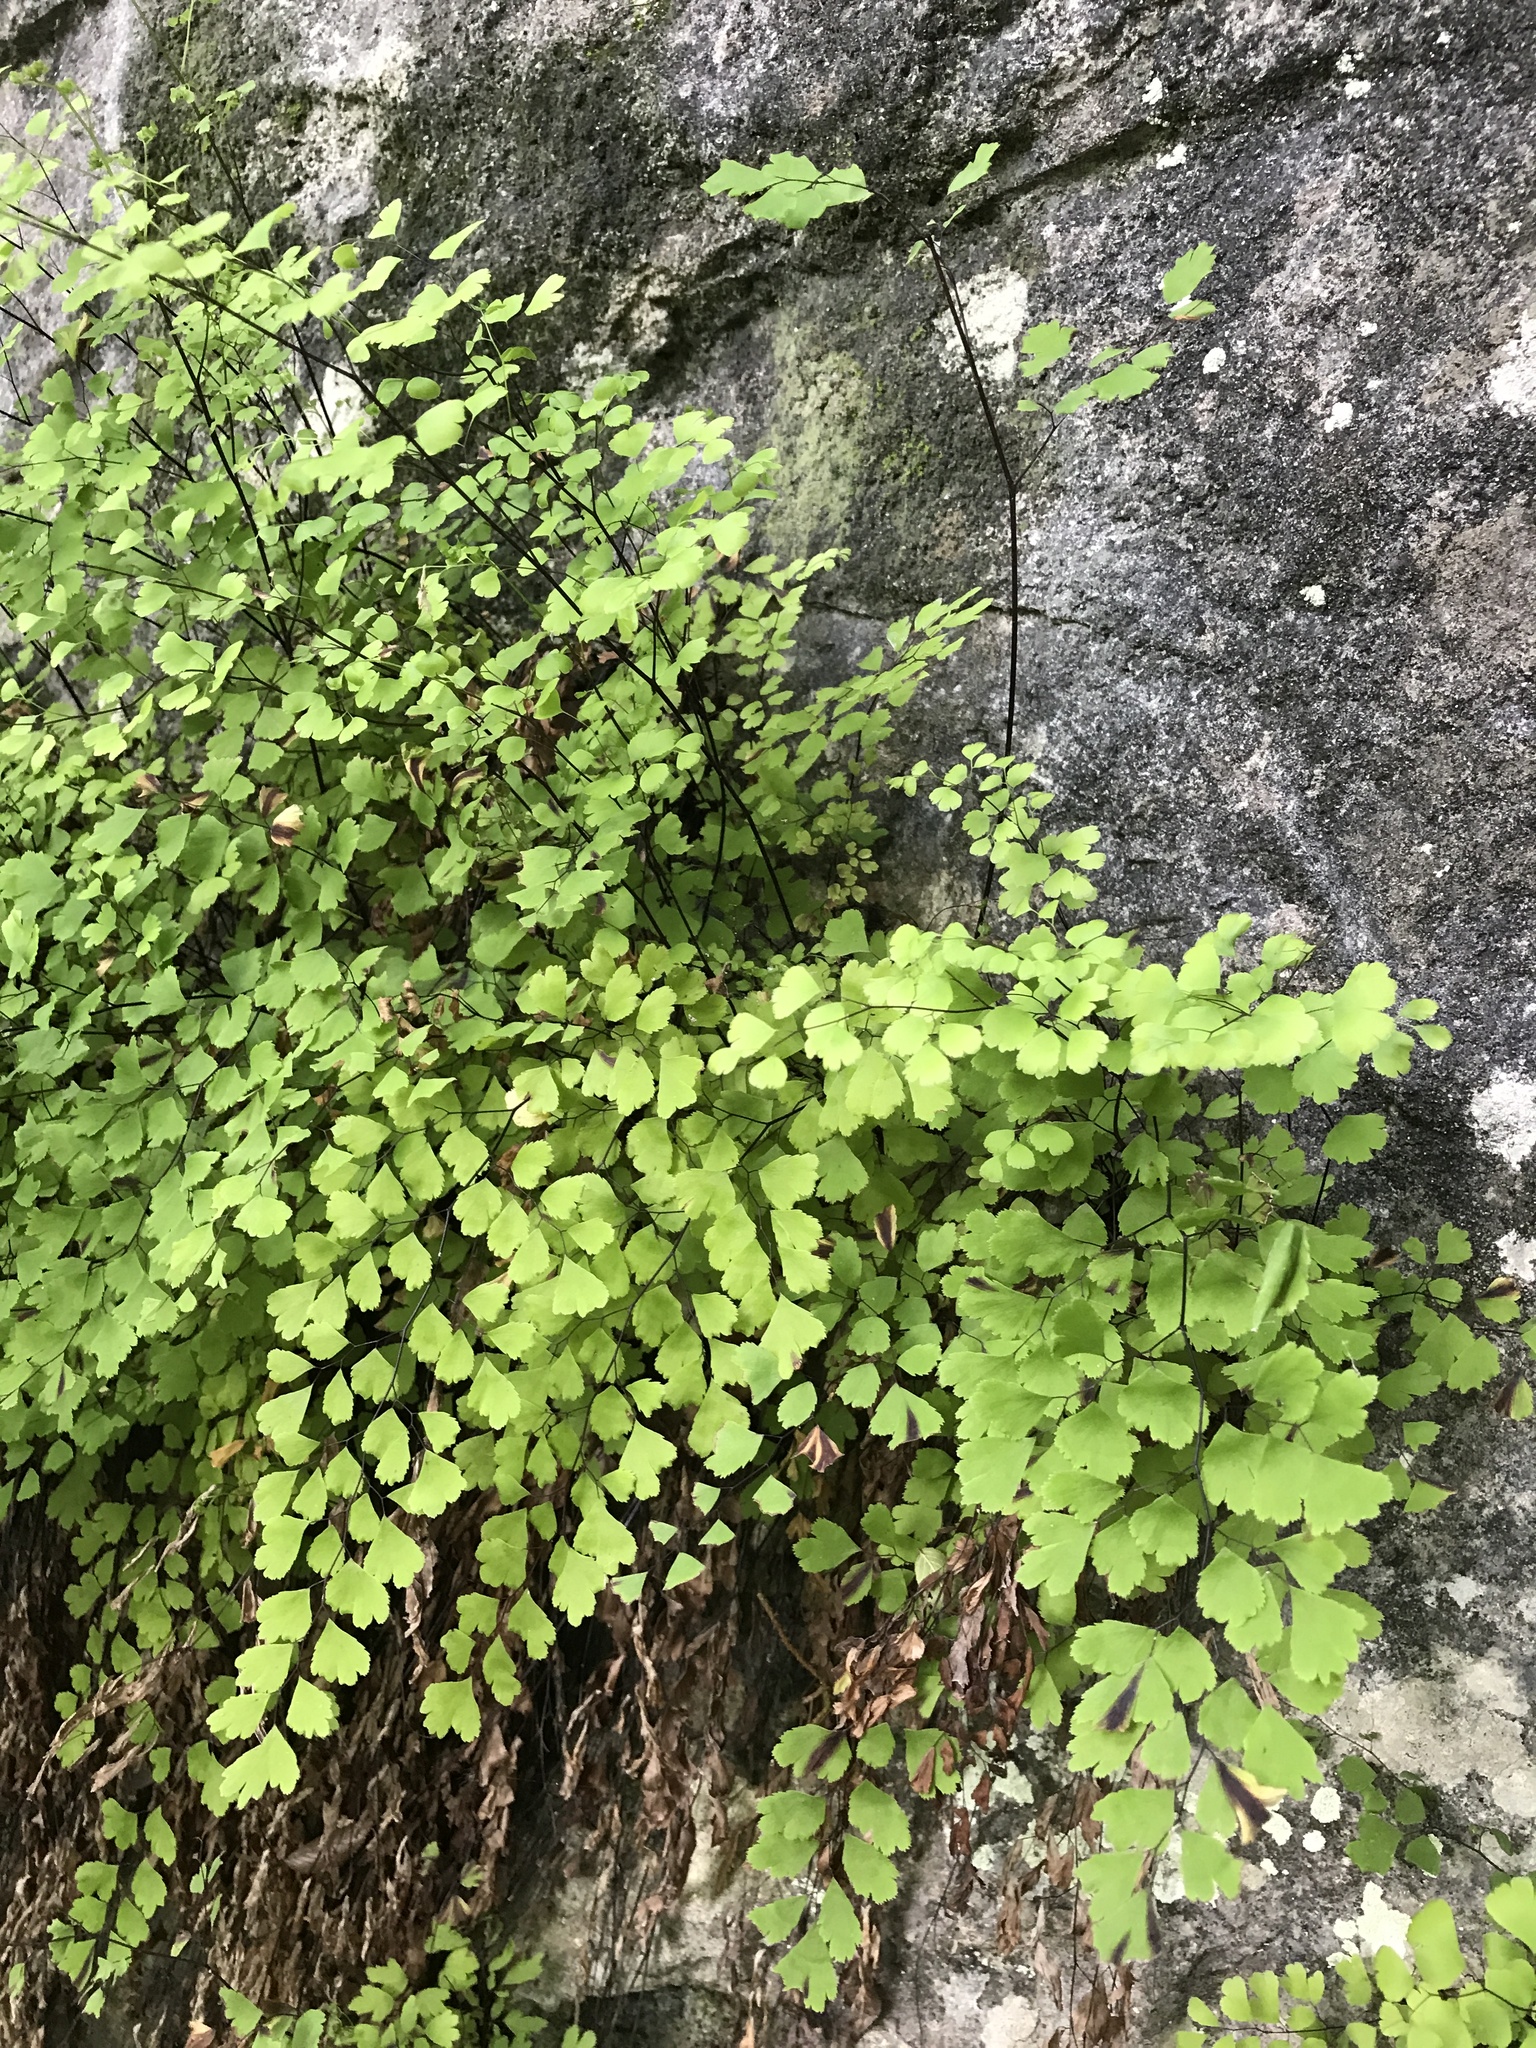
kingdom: Plantae
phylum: Tracheophyta
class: Polypodiopsida
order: Polypodiales
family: Pteridaceae
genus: Adiantum
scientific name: Adiantum capillus-veneris
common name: Maidenhair fern
